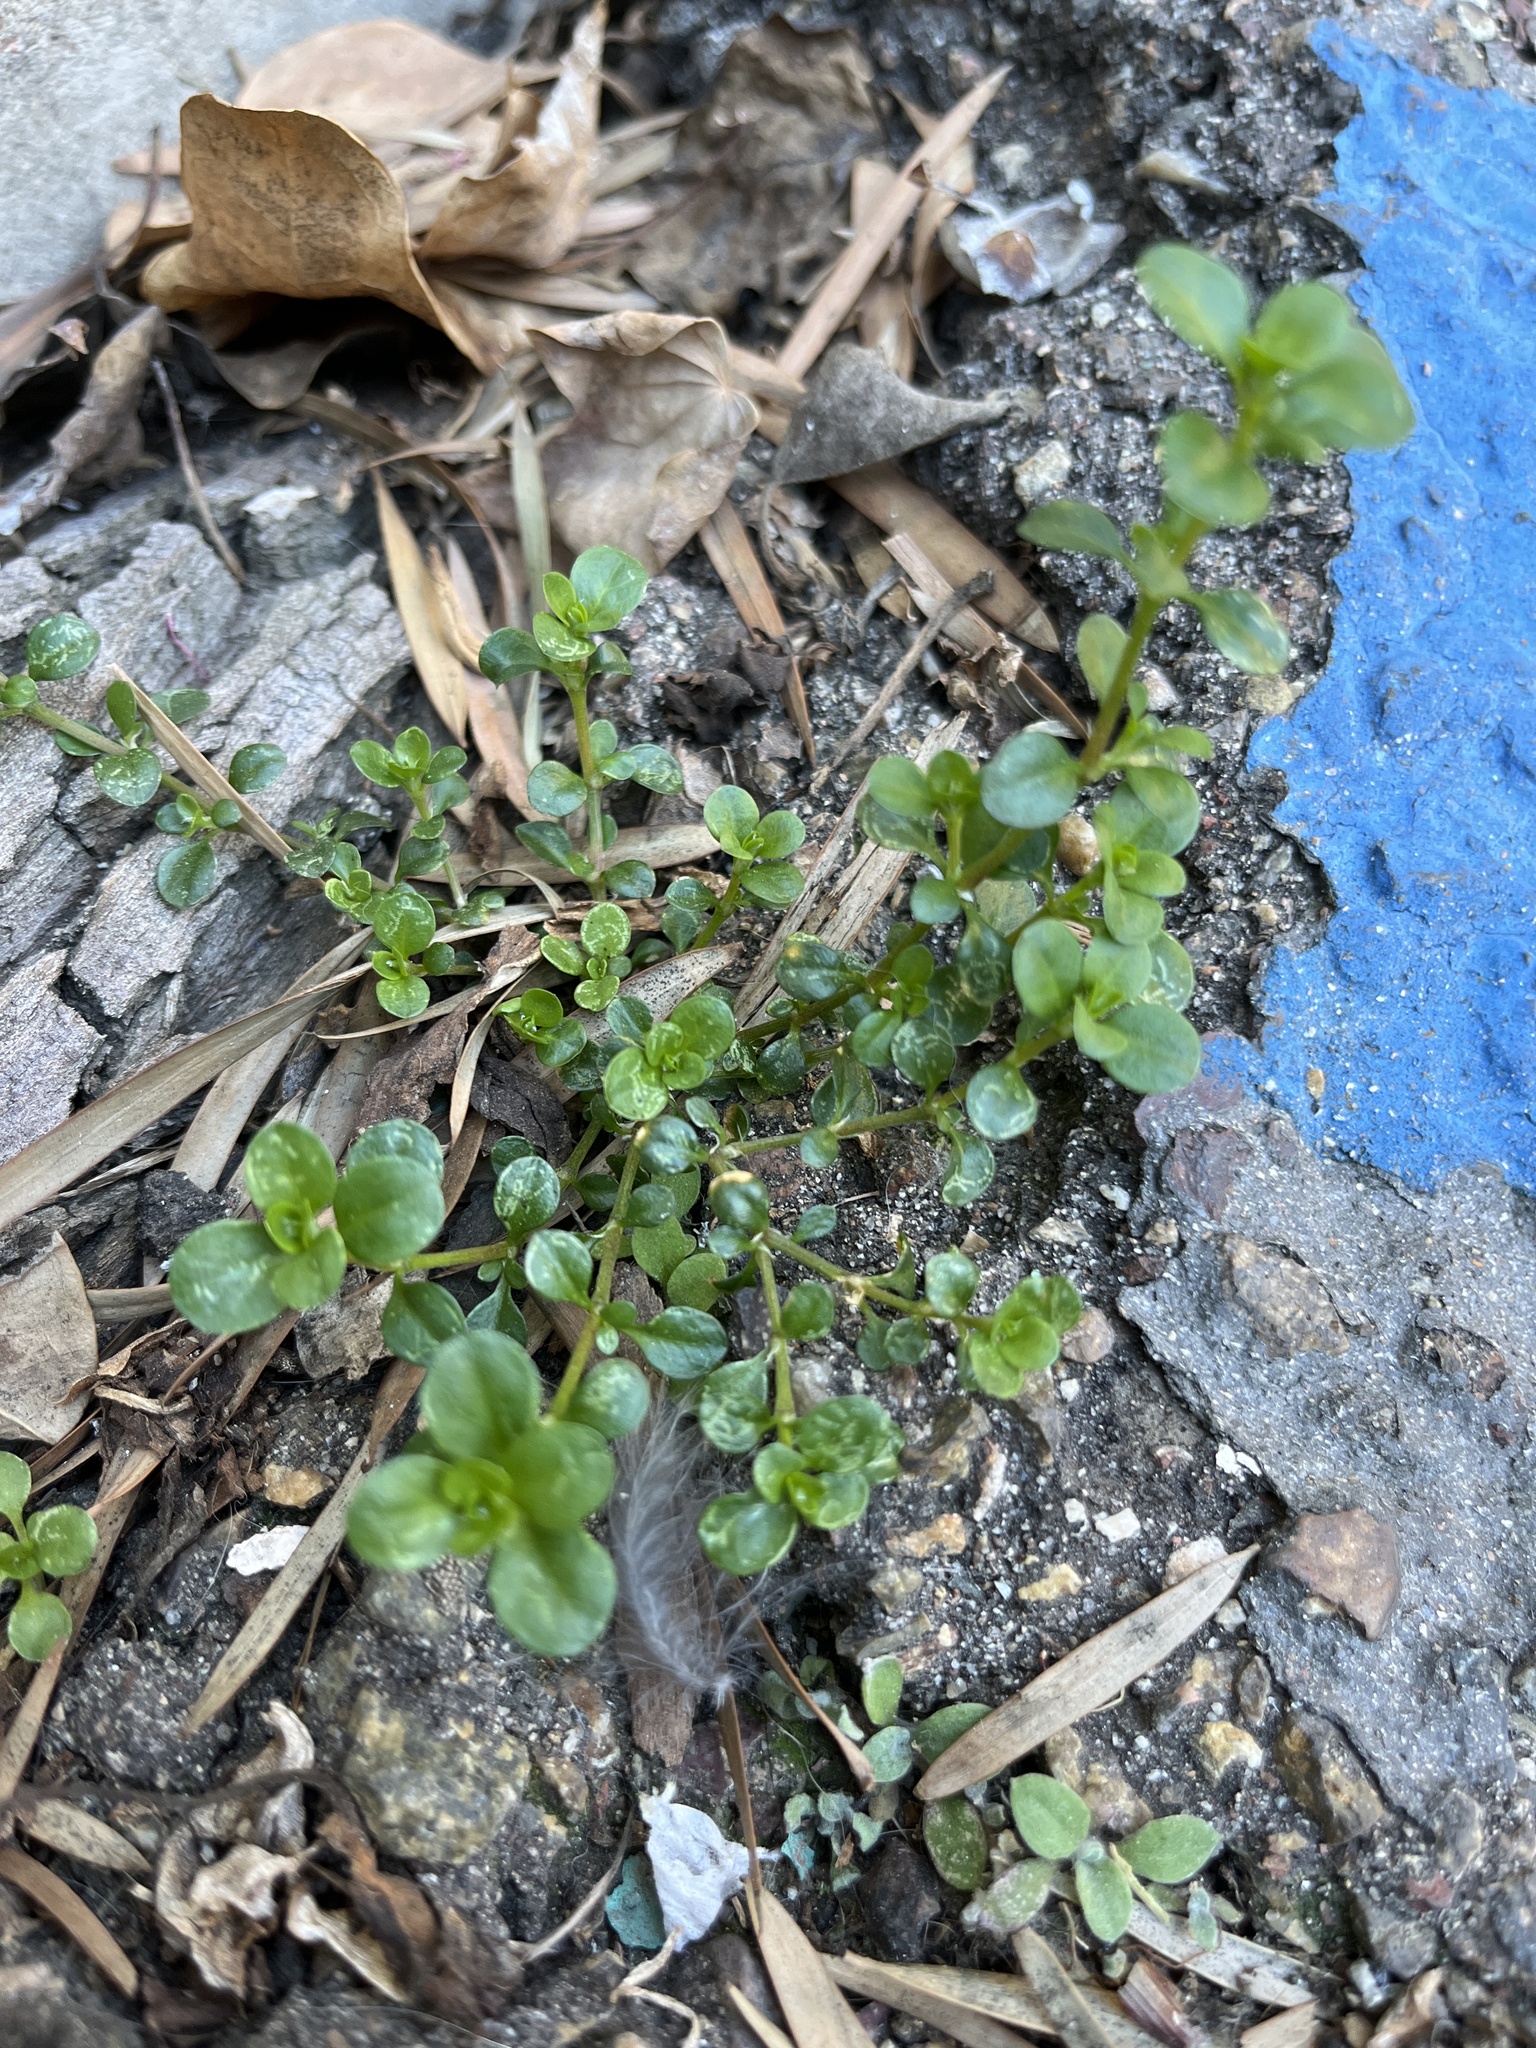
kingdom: Plantae
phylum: Tracheophyta
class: Magnoliopsida
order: Caryophyllales
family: Caryophyllaceae
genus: Polycarpon
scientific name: Polycarpon tetraphyllum
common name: Four-leaved all-seed
